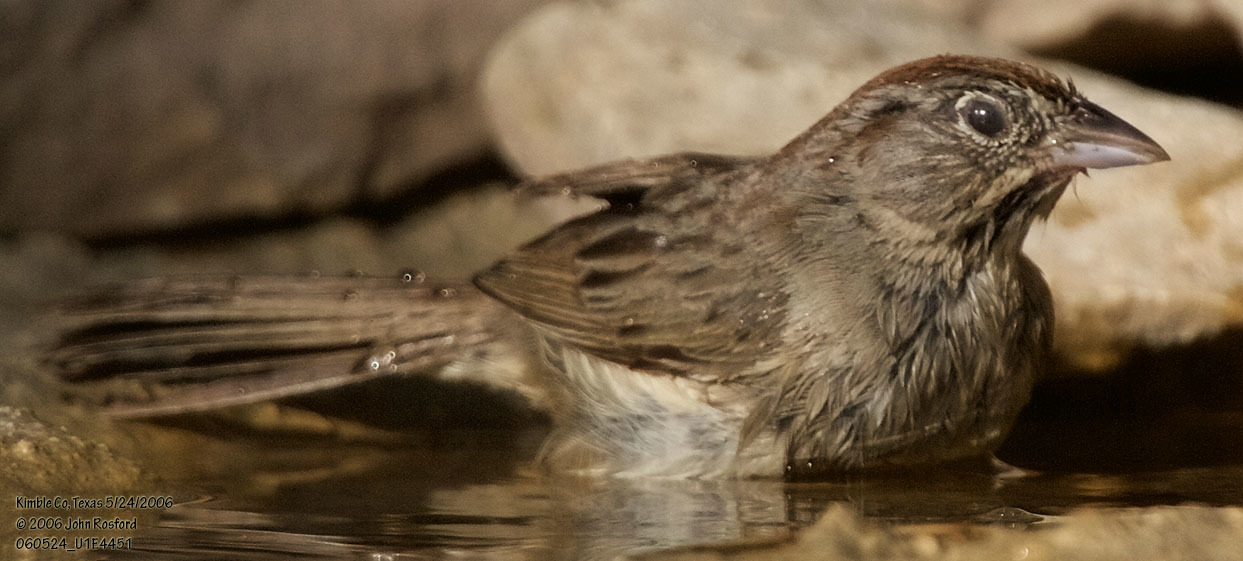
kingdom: Animalia
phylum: Chordata
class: Aves
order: Passeriformes
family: Passerellidae
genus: Aimophila
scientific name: Aimophila ruficeps
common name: Rufous-crowned sparrow
